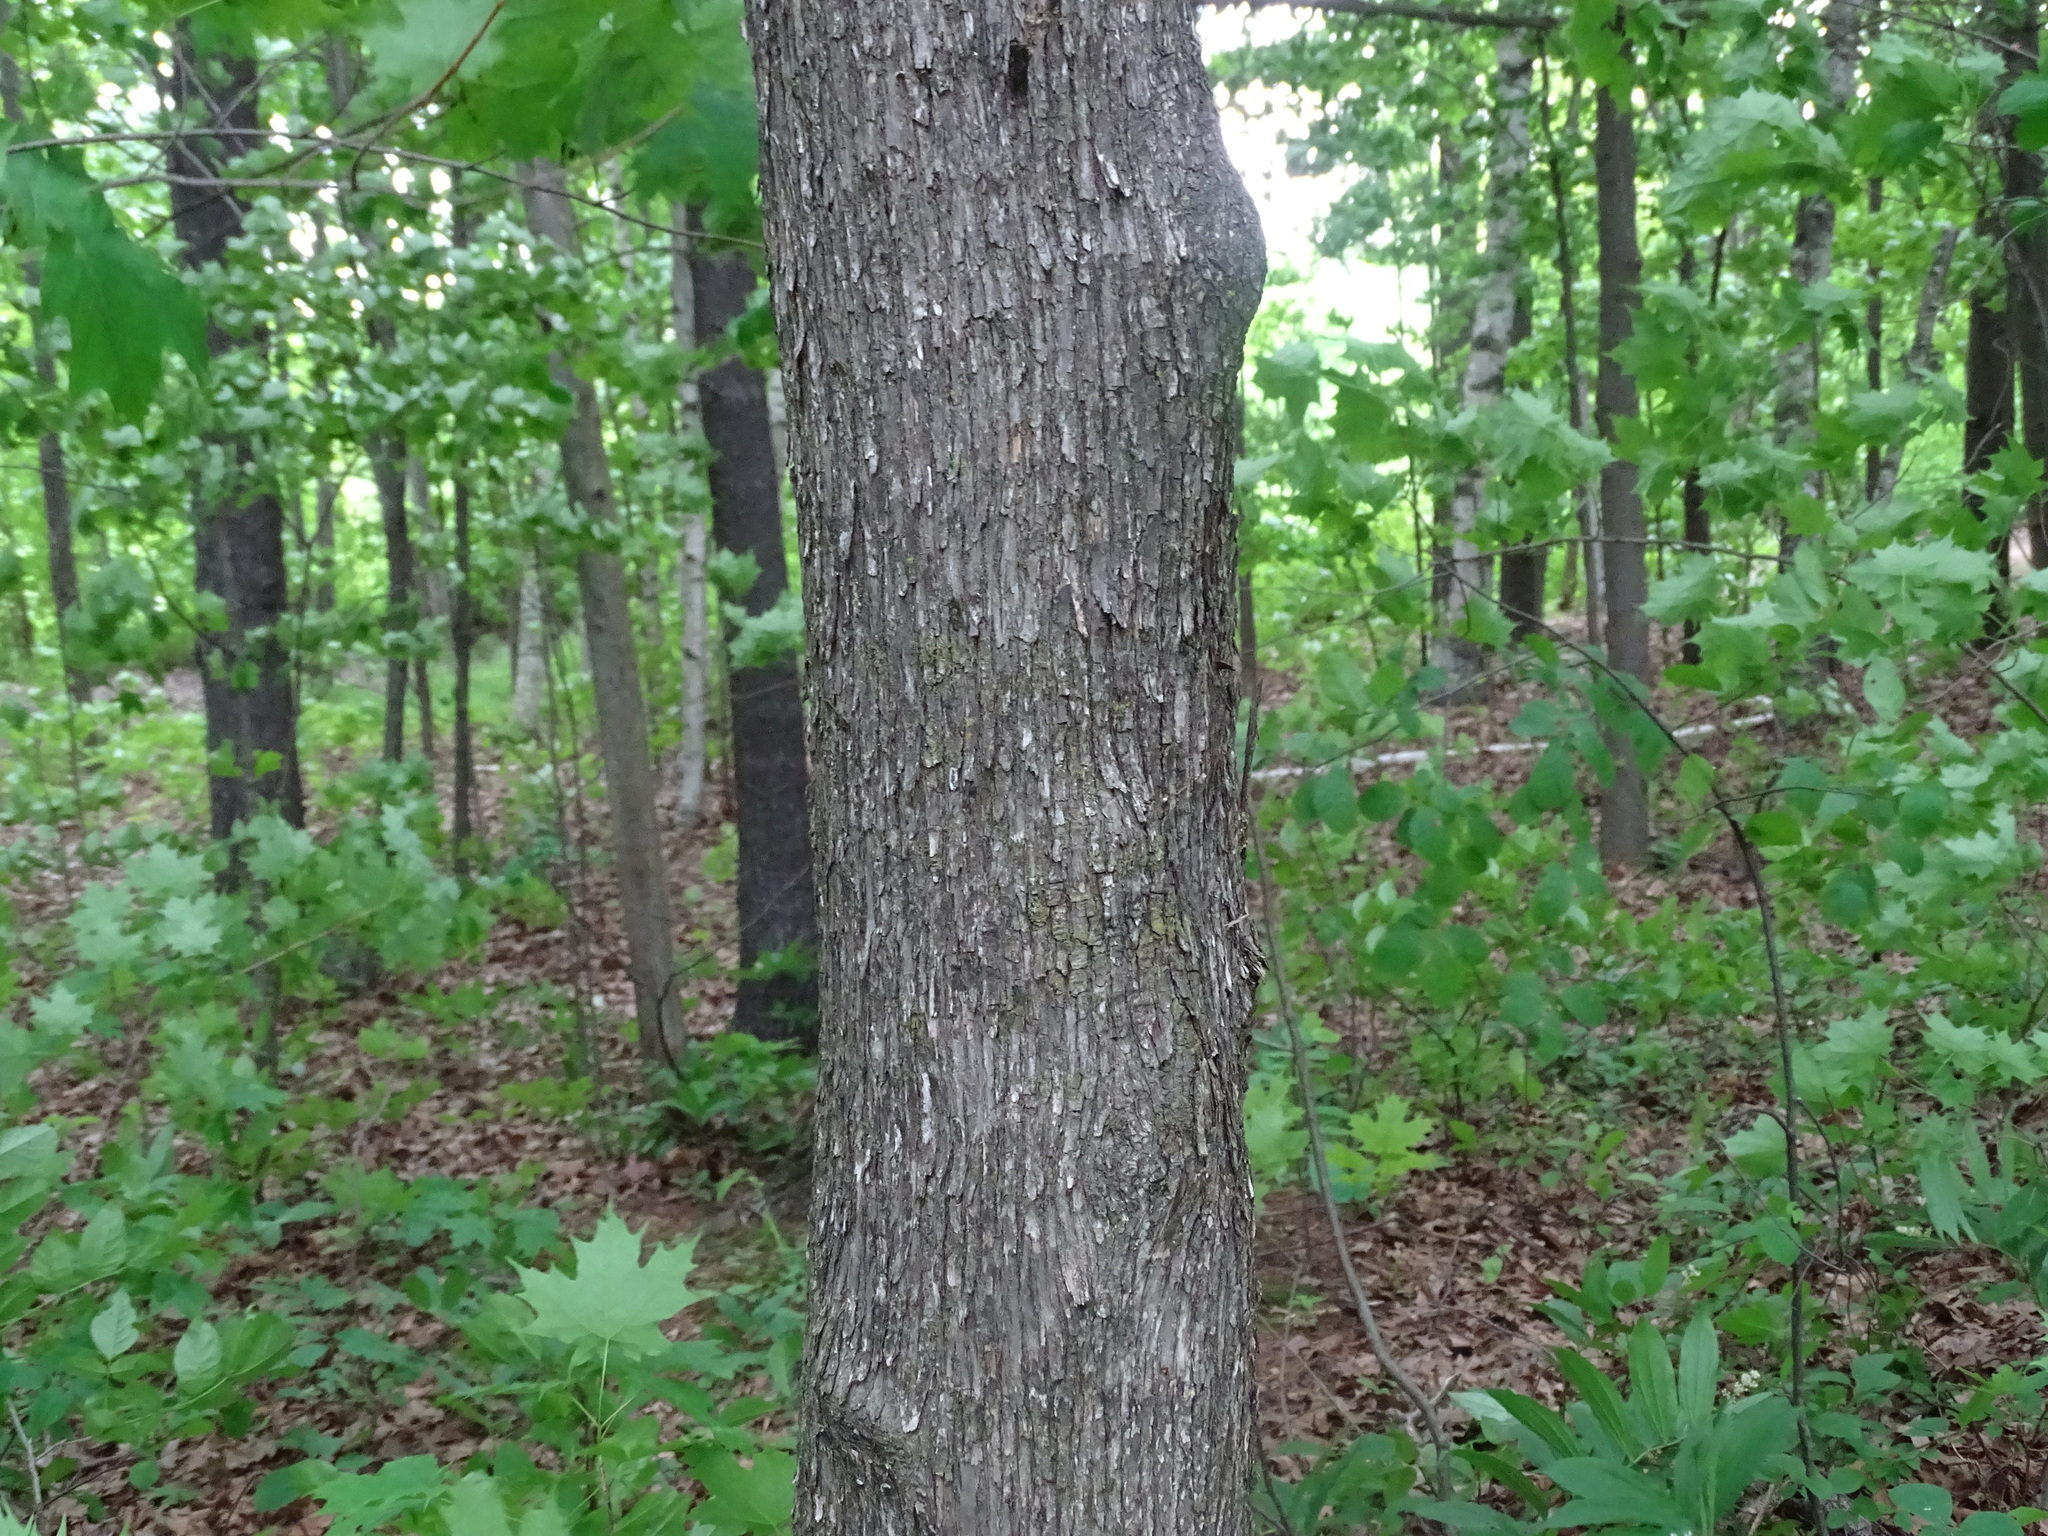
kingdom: Plantae
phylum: Tracheophyta
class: Magnoliopsida
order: Fagales
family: Betulaceae
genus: Ostrya
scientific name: Ostrya virginiana
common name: Ironwood
